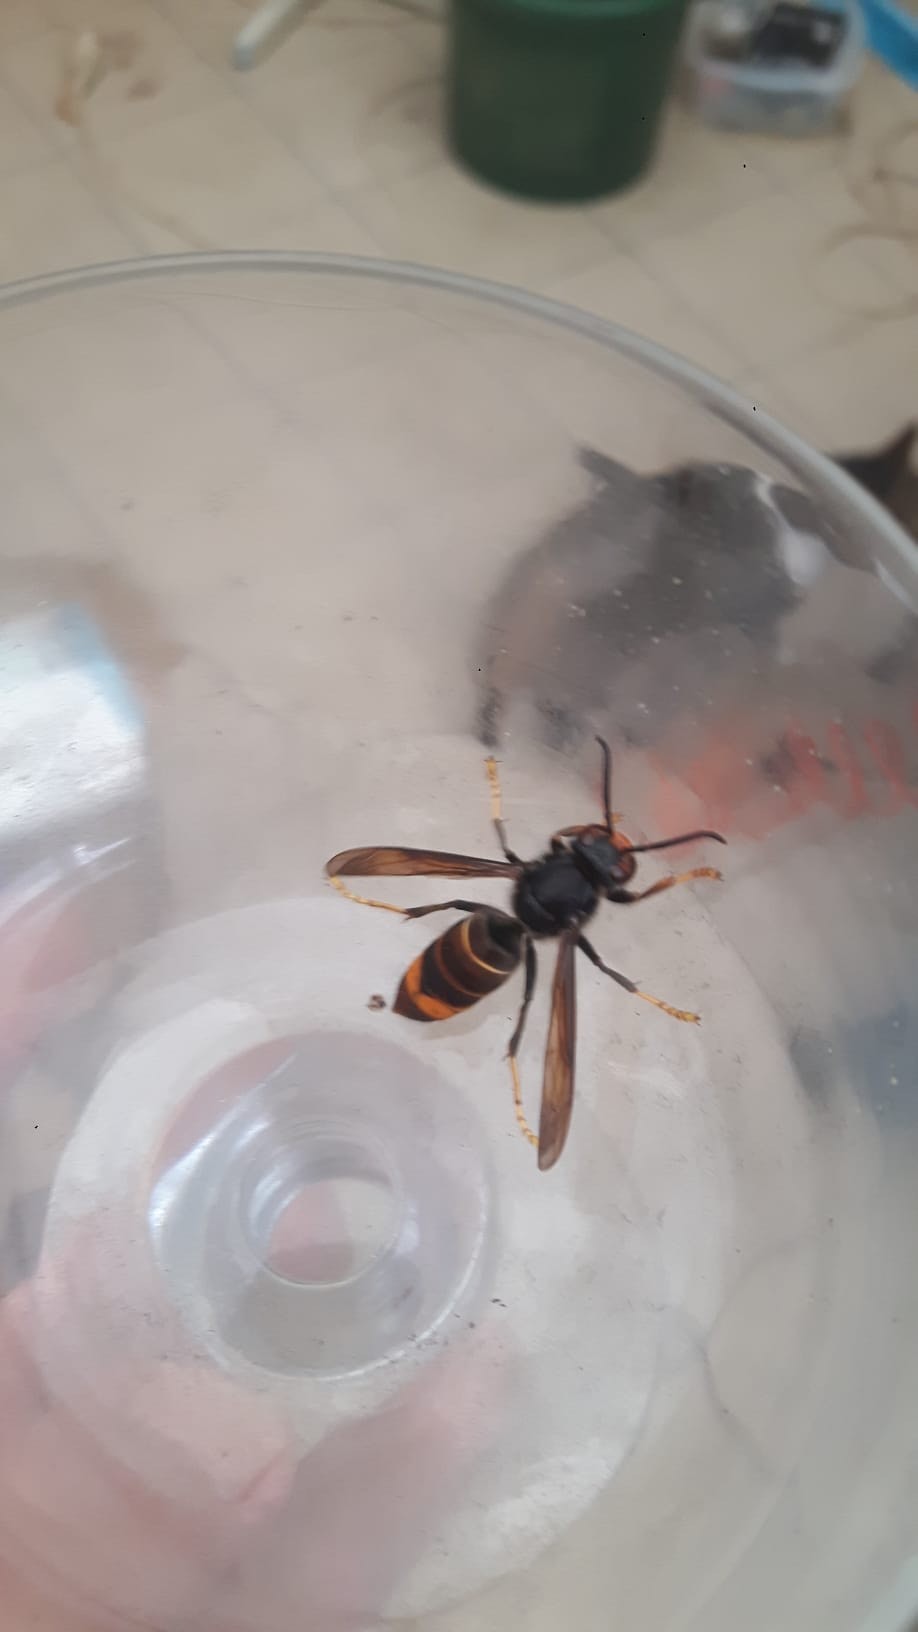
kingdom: Animalia
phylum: Arthropoda
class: Insecta
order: Hymenoptera
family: Vespidae
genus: Vespa
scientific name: Vespa velutina
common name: Asian hornet
